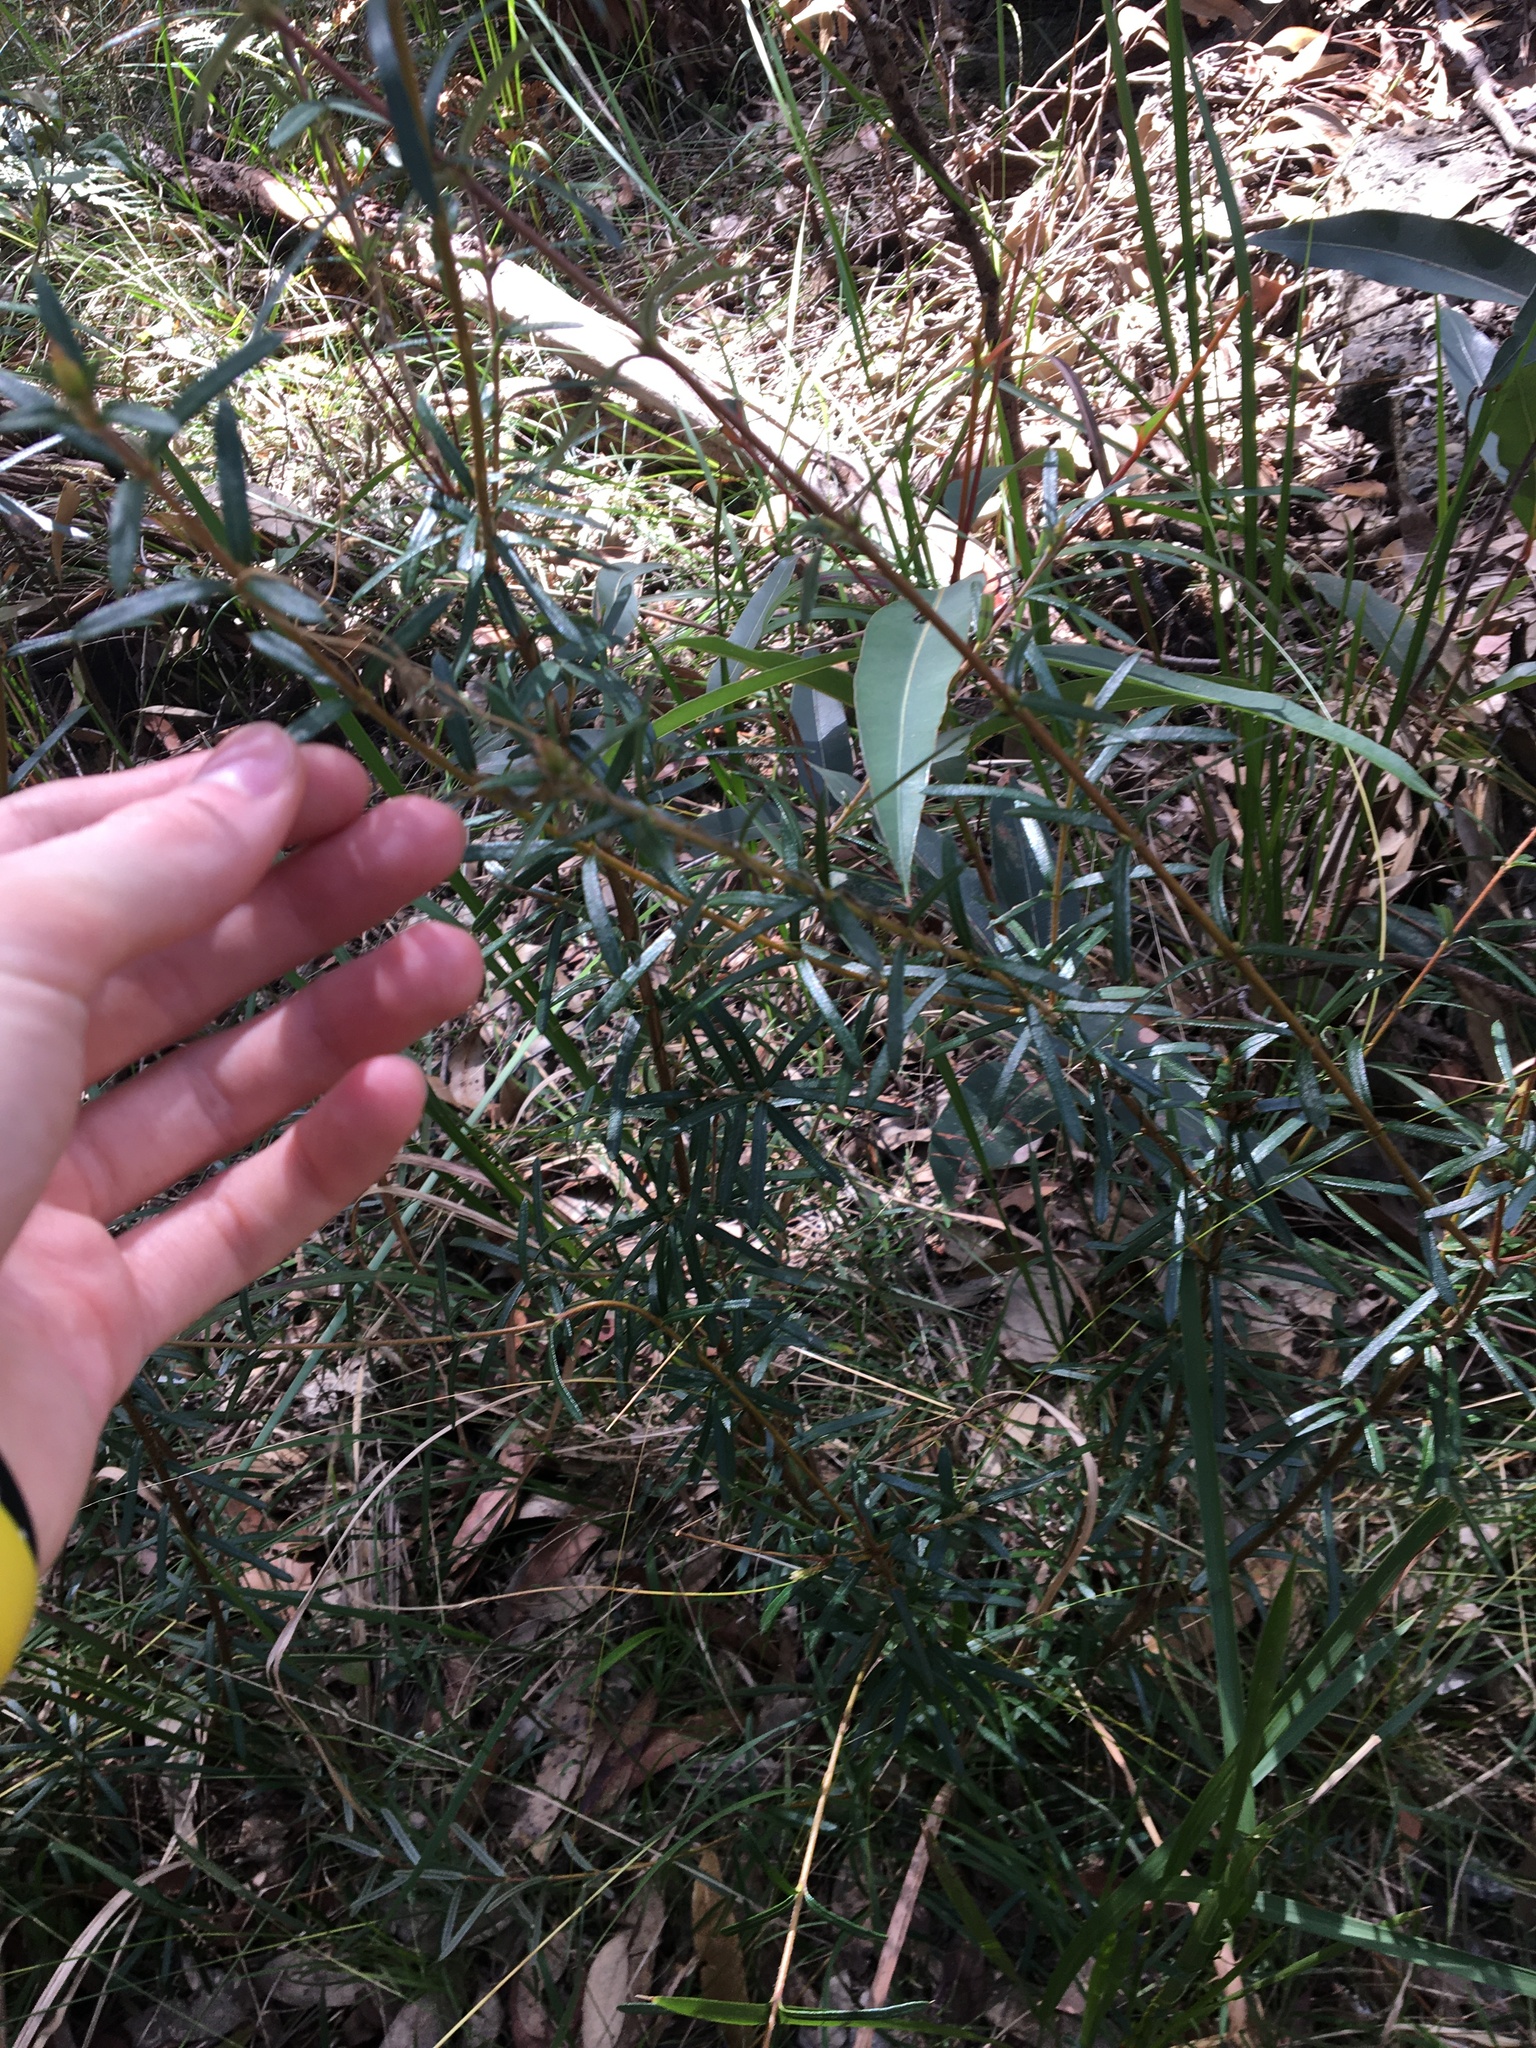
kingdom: Plantae
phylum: Tracheophyta
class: Magnoliopsida
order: Proteales
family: Proteaceae
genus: Lambertia
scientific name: Lambertia formosa
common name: Mountain-devil
